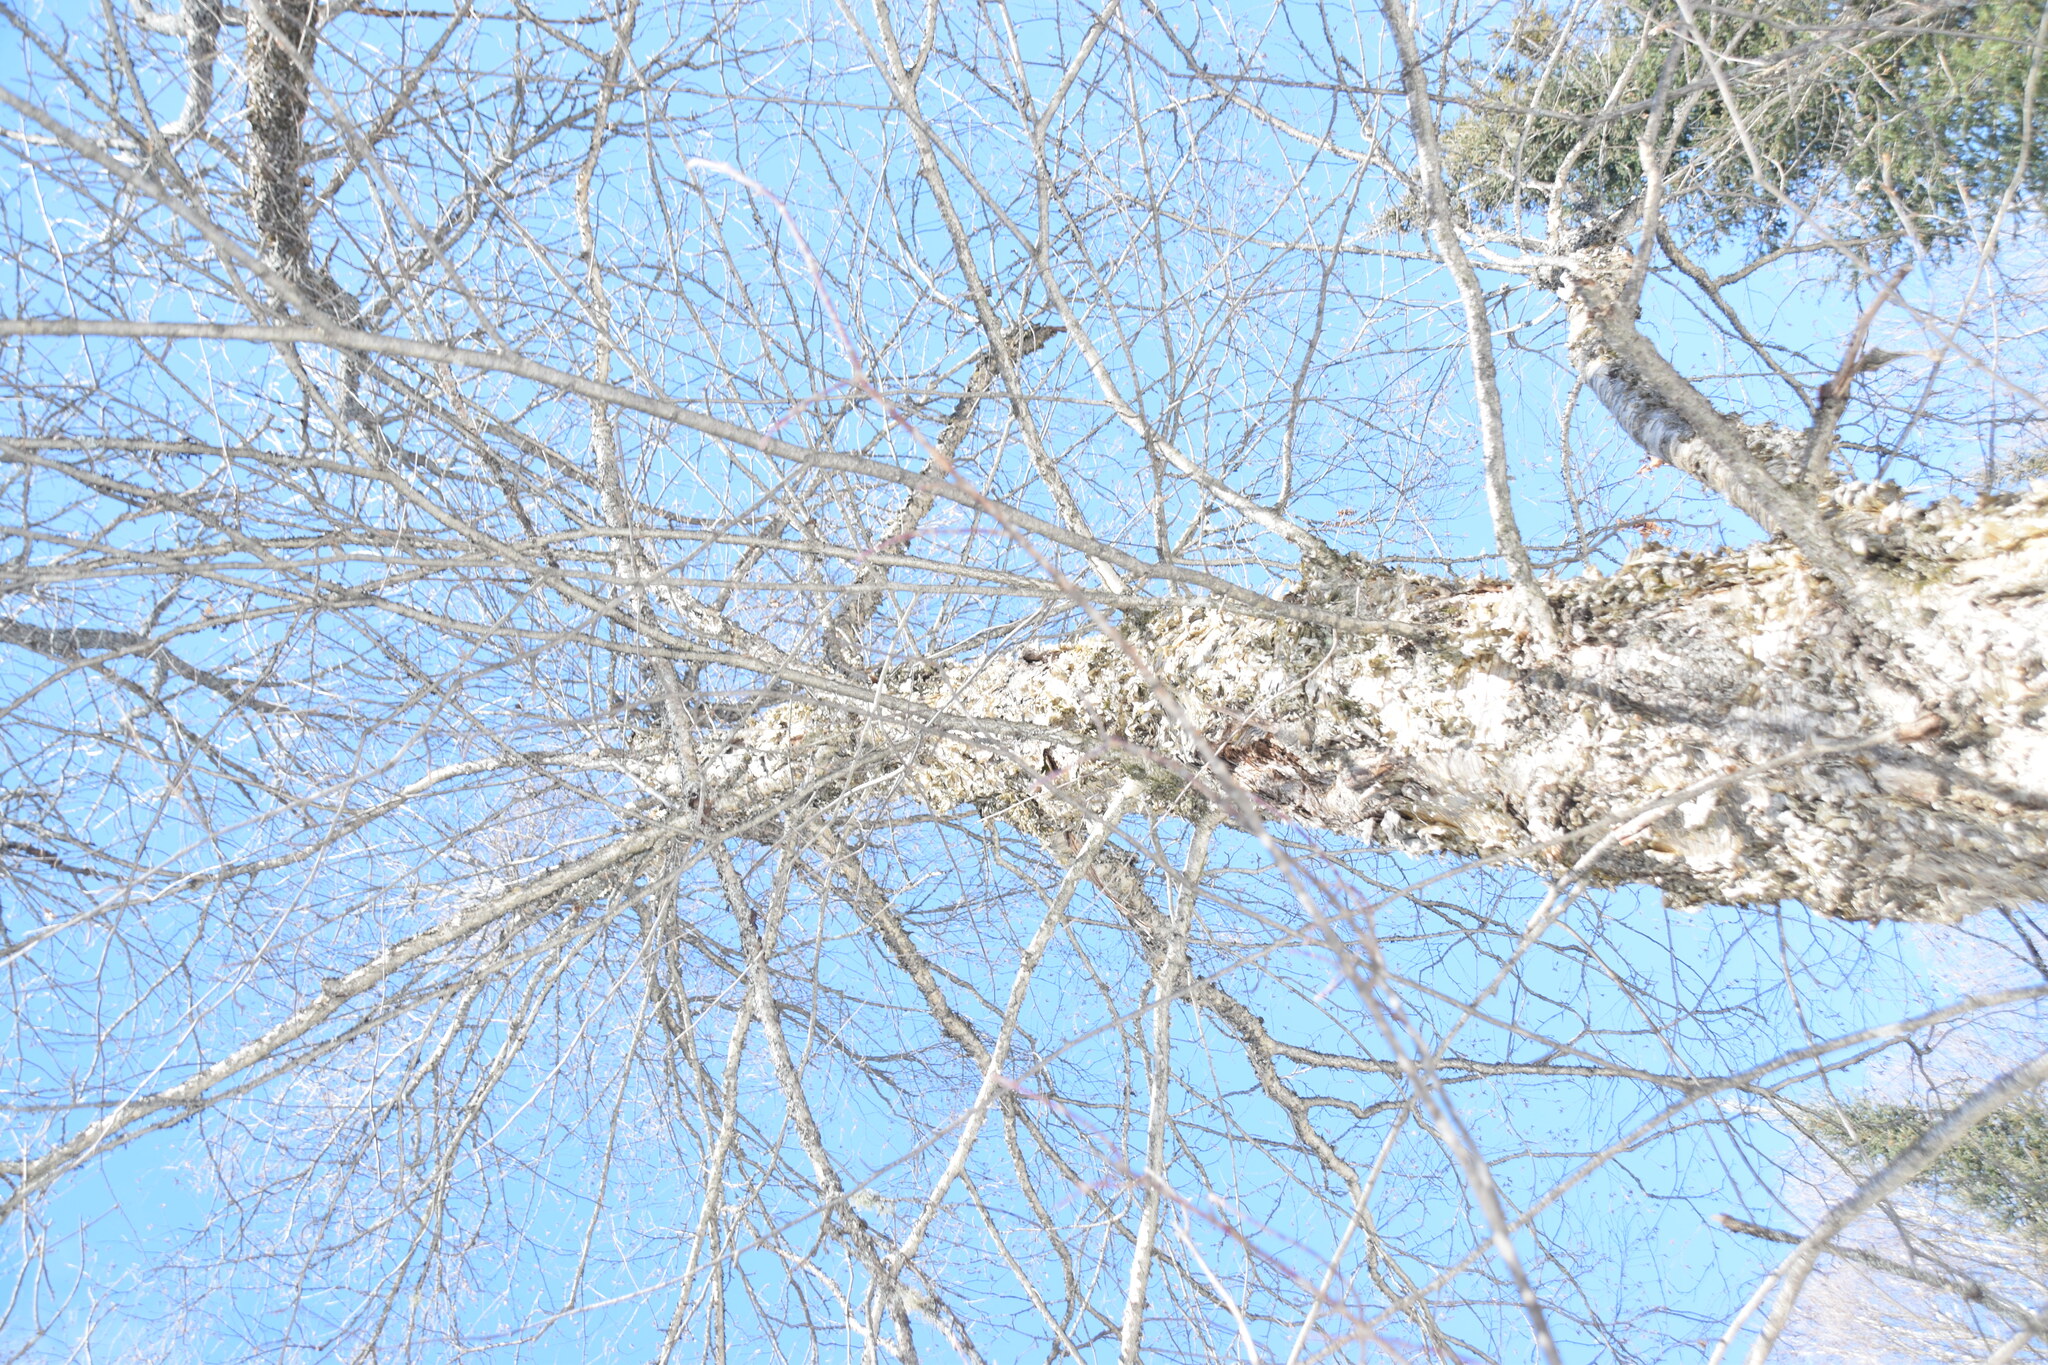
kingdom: Plantae
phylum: Tracheophyta
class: Magnoliopsida
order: Fagales
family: Betulaceae
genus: Betula
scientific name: Betula alleghaniensis
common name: Yellow birch
